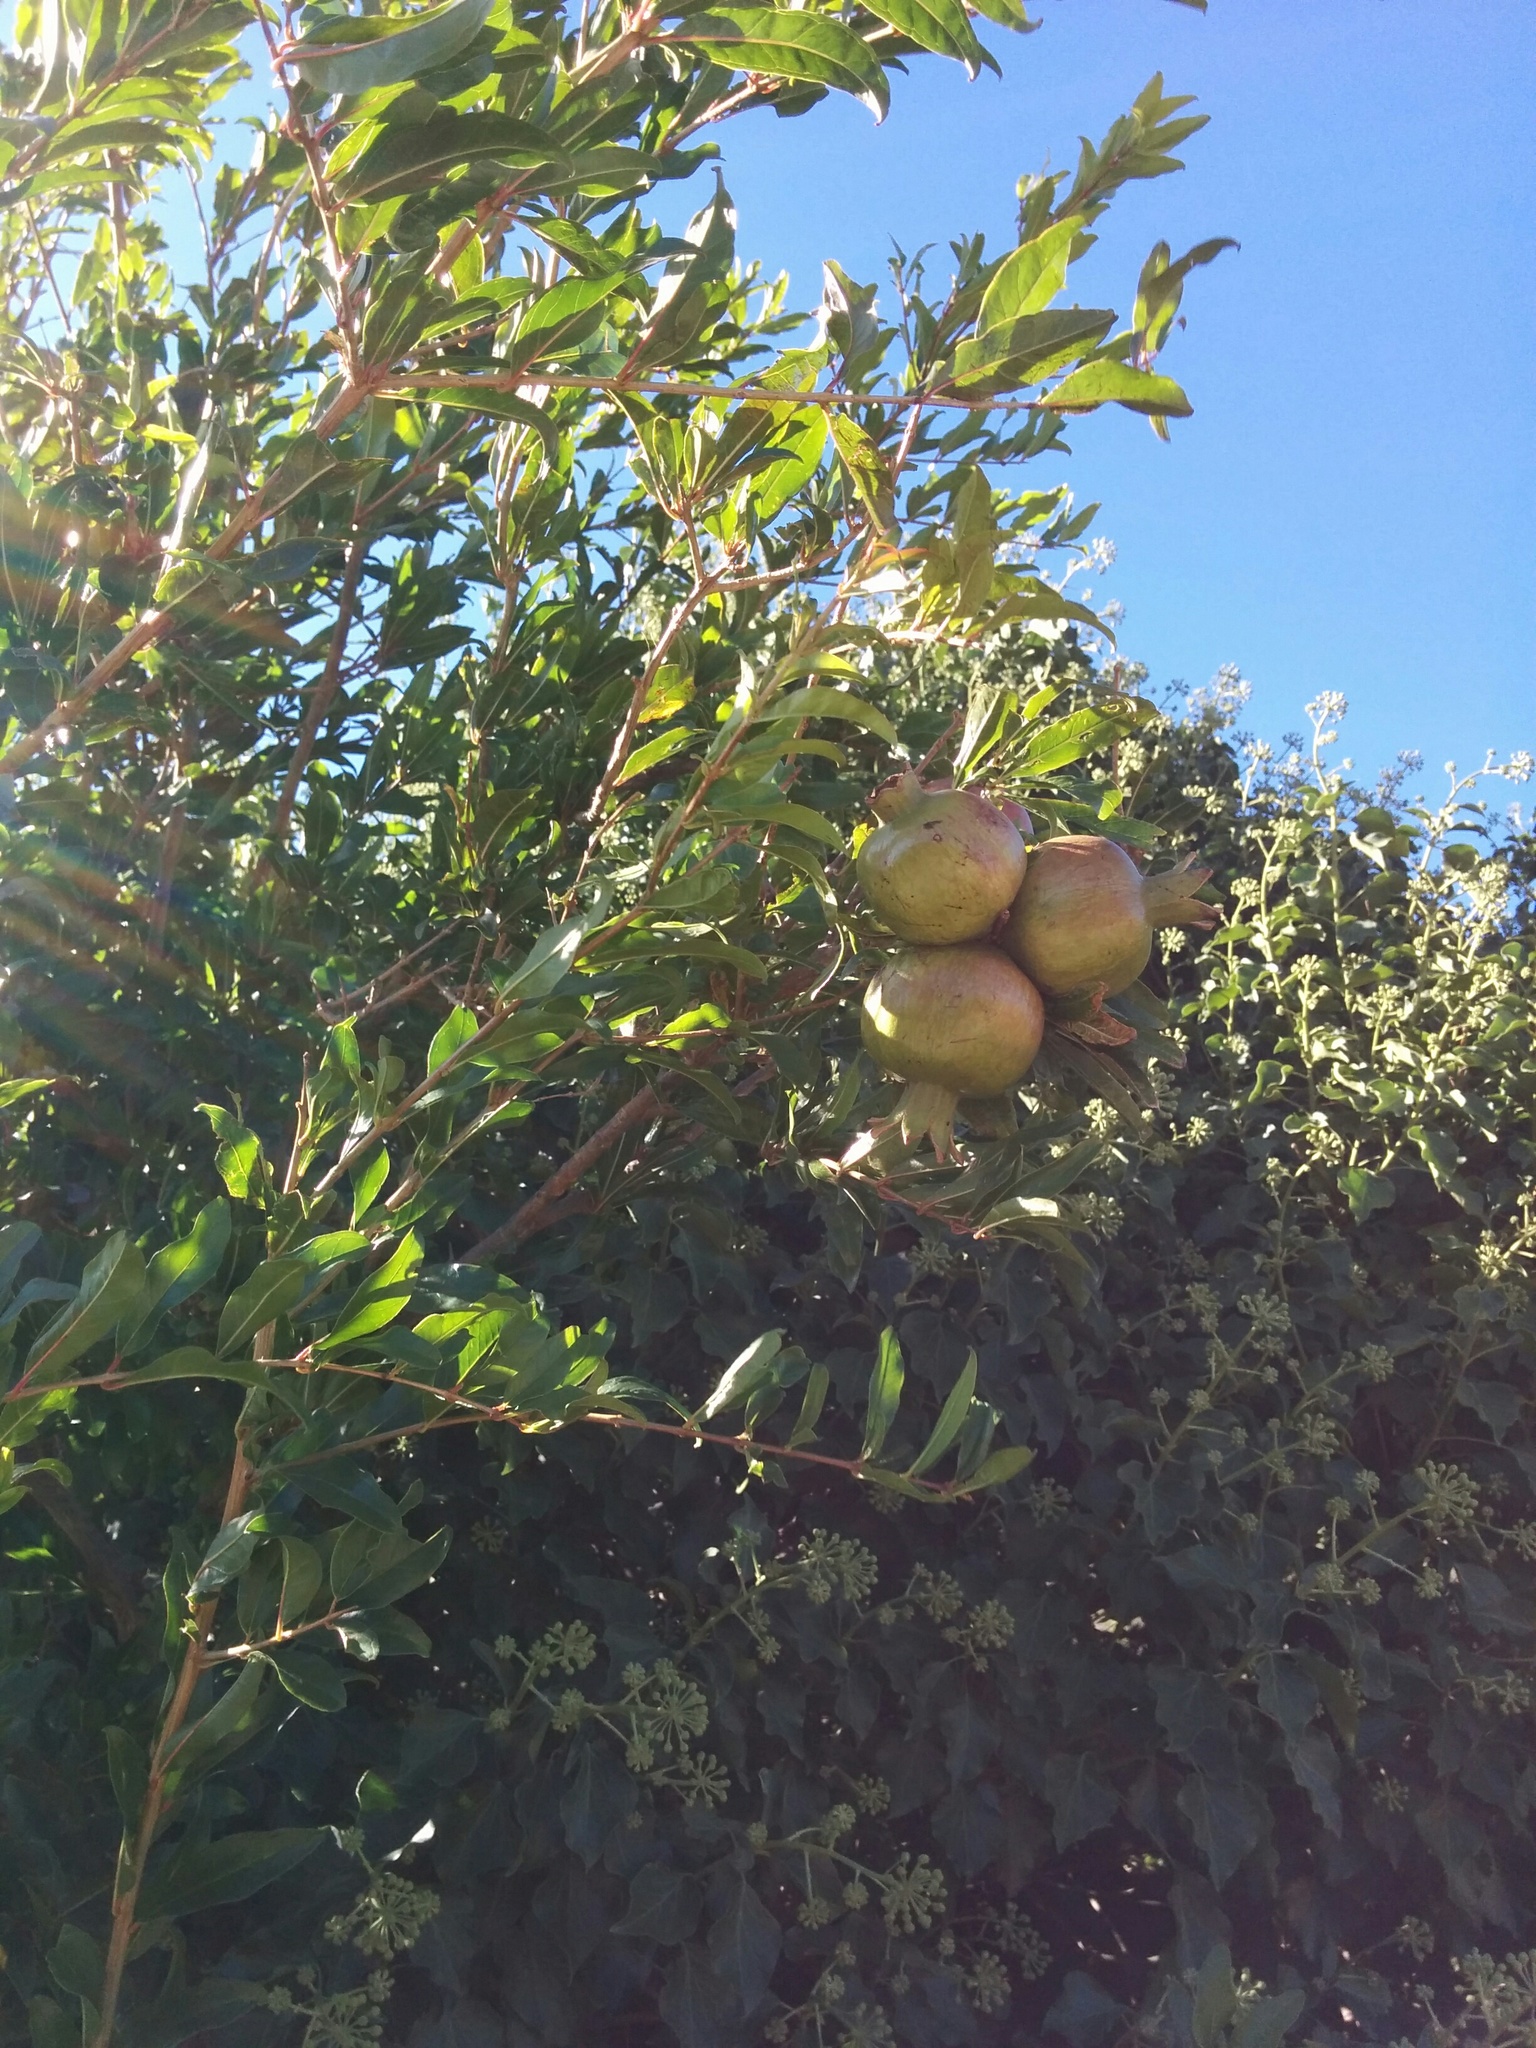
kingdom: Plantae
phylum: Tracheophyta
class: Magnoliopsida
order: Myrtales
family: Lythraceae
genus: Punica
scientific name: Punica granatum
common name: Pomegranate
